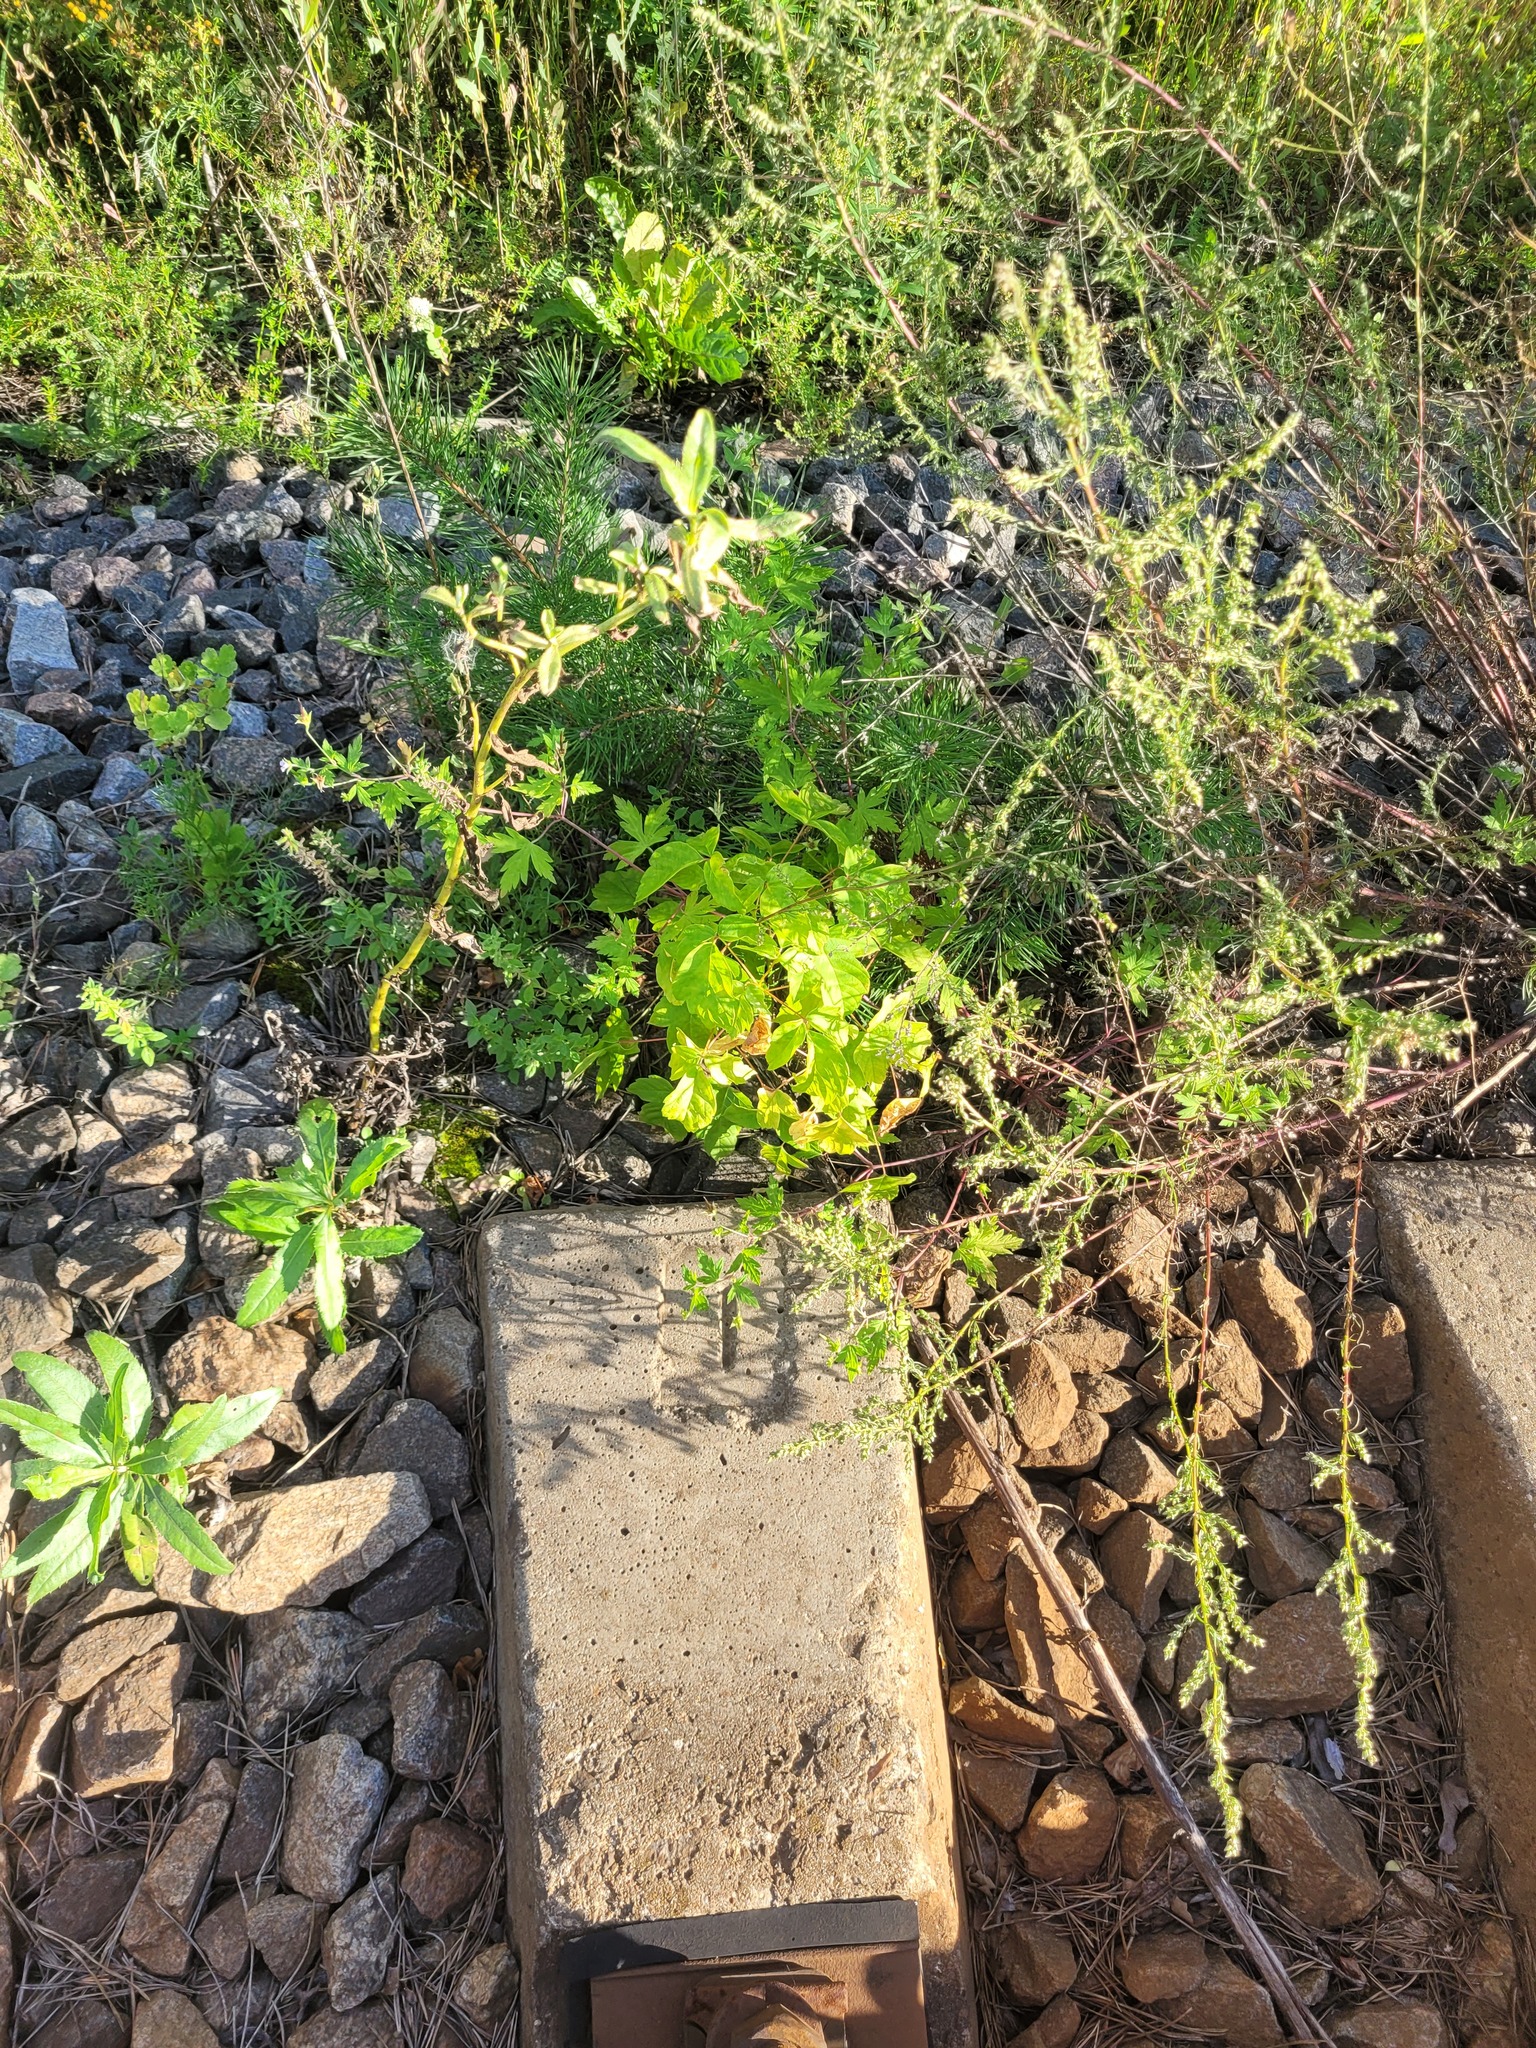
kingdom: Plantae
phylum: Tracheophyta
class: Magnoliopsida
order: Sapindales
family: Sapindaceae
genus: Acer
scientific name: Acer negundo
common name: Ashleaf maple
